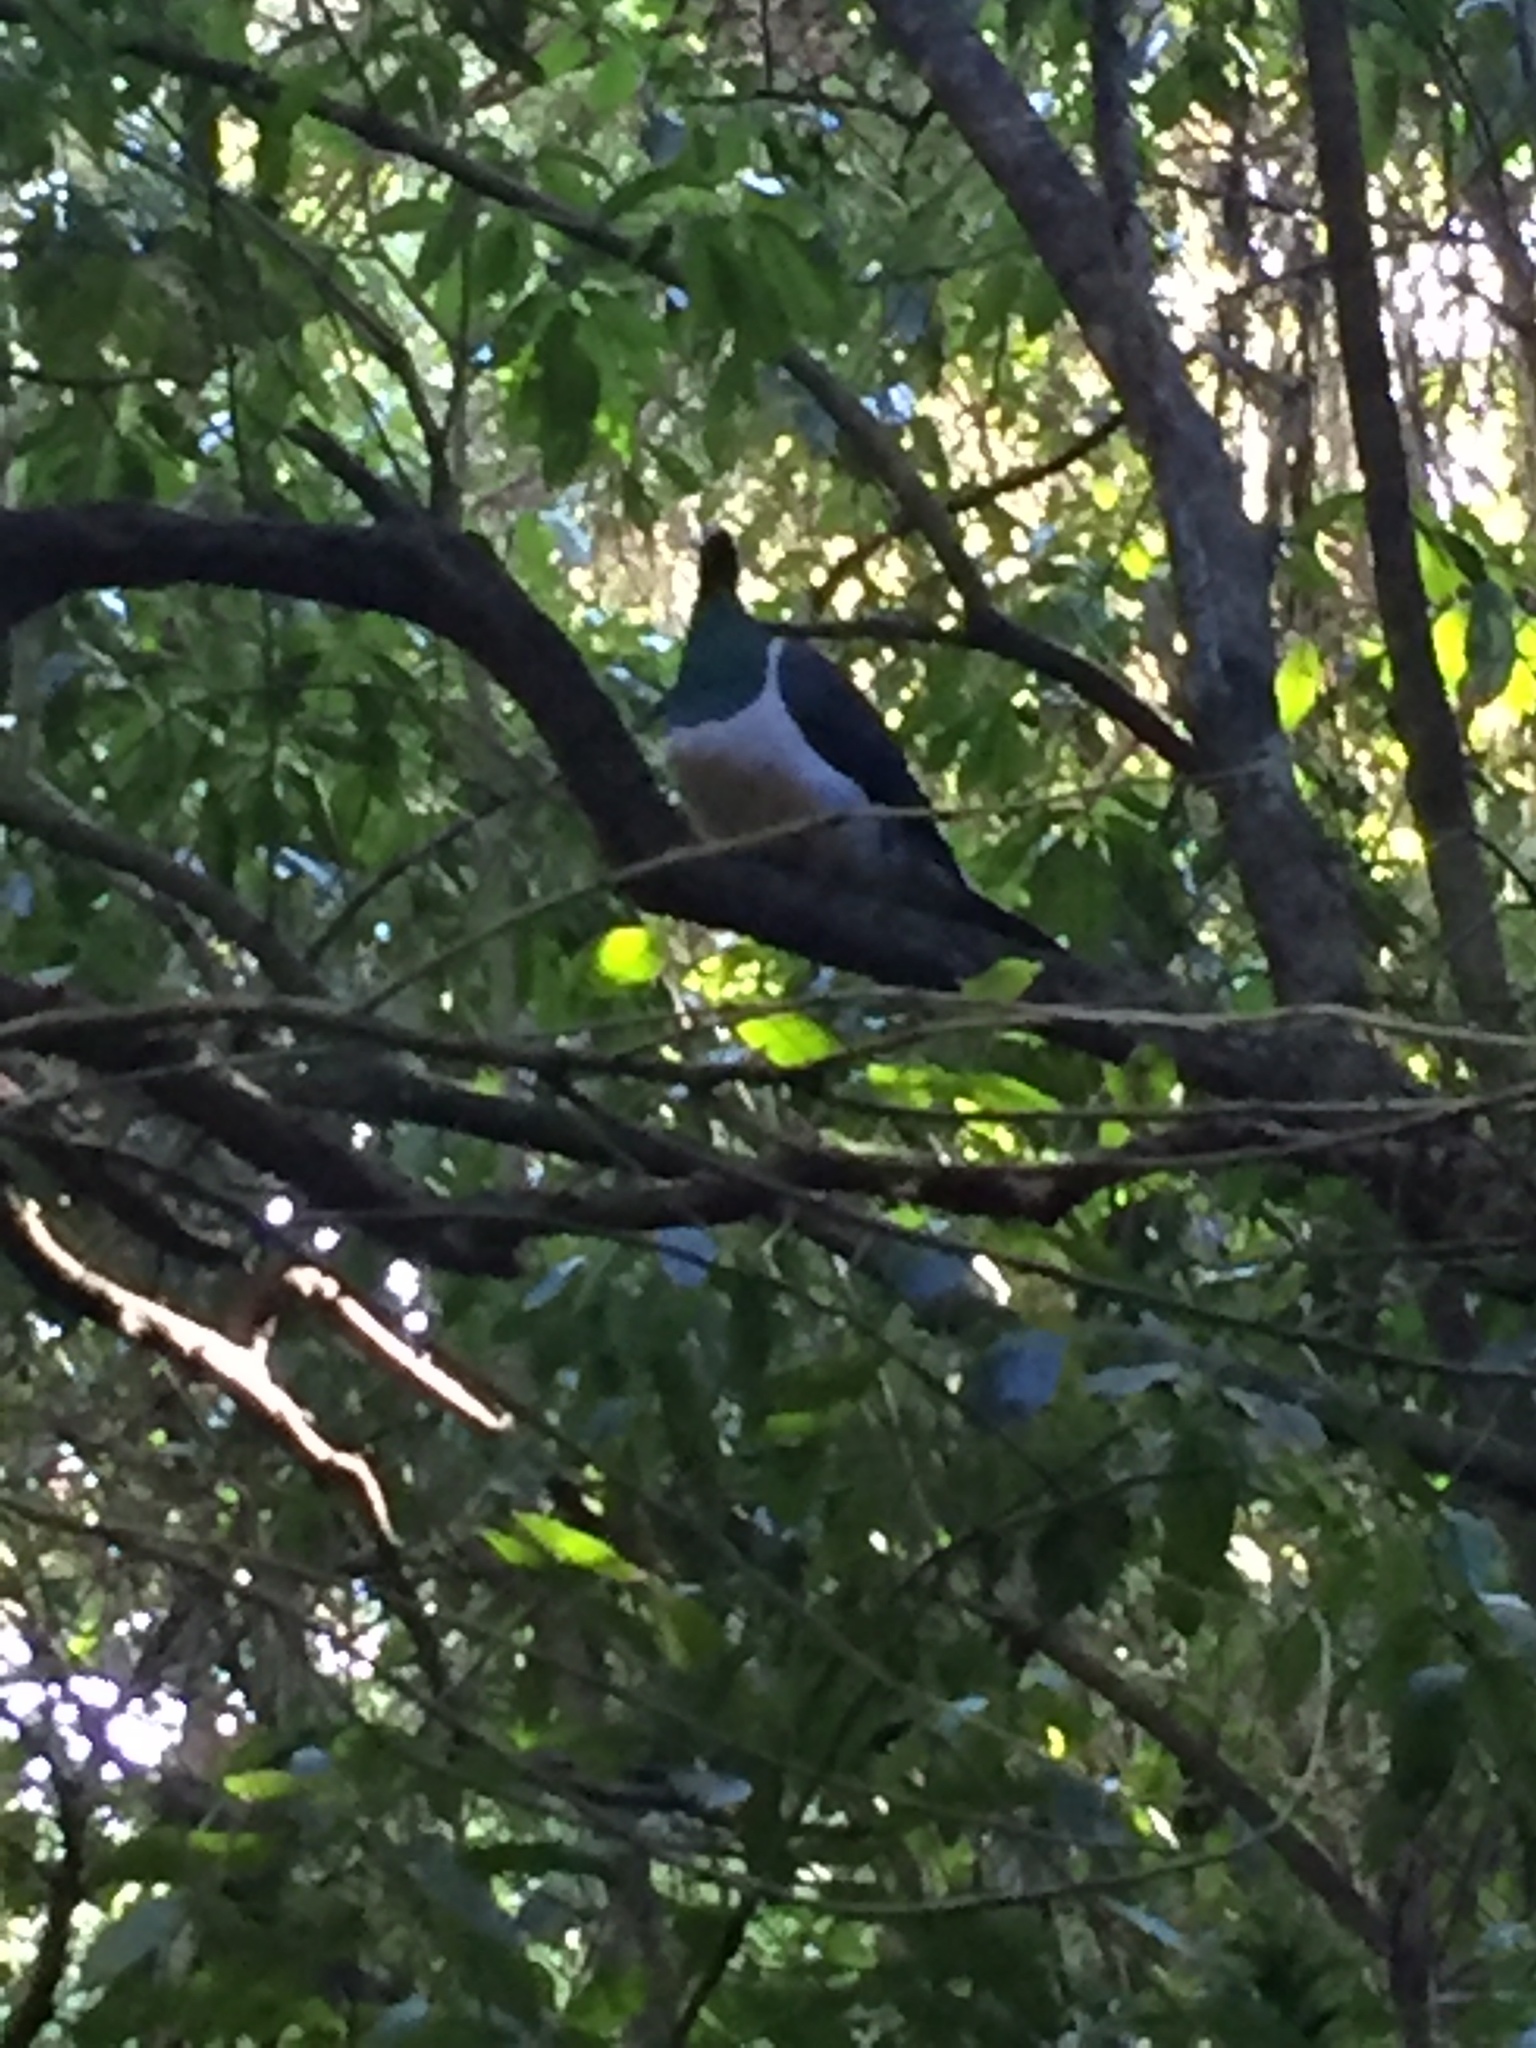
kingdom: Animalia
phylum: Chordata
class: Aves
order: Columbiformes
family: Columbidae
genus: Hemiphaga
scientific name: Hemiphaga novaeseelandiae
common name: New zealand pigeon
